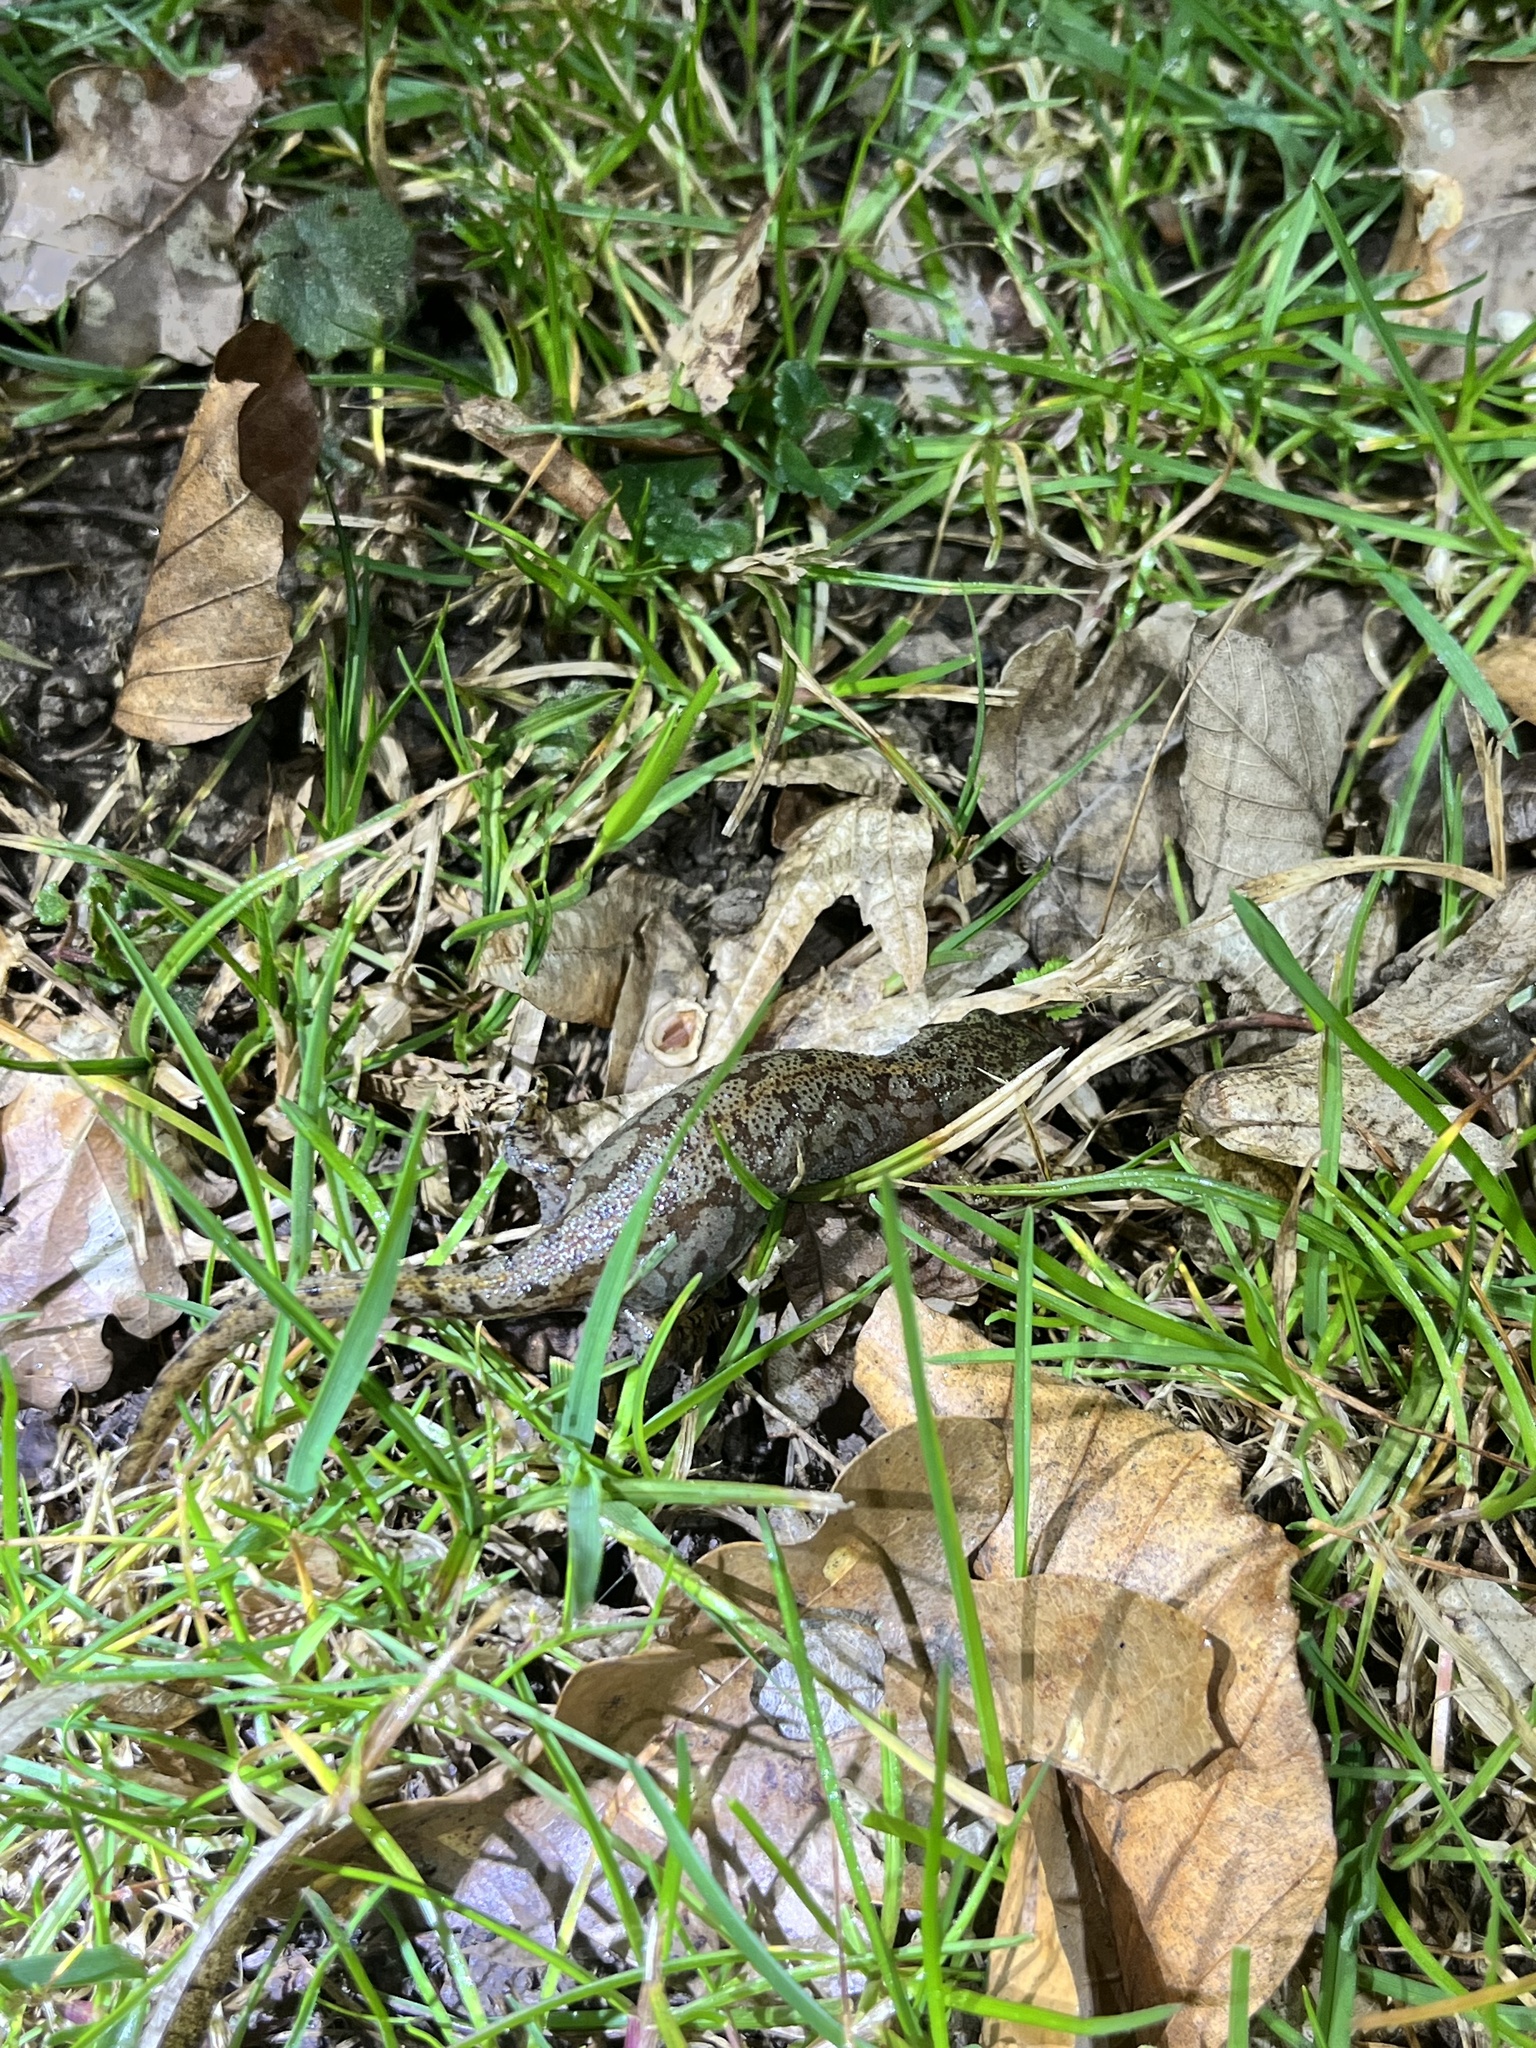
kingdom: Animalia
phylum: Chordata
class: Amphibia
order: Caudata
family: Salamandridae
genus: Ichthyosaura
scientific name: Ichthyosaura alpestris
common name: Alpine newt
